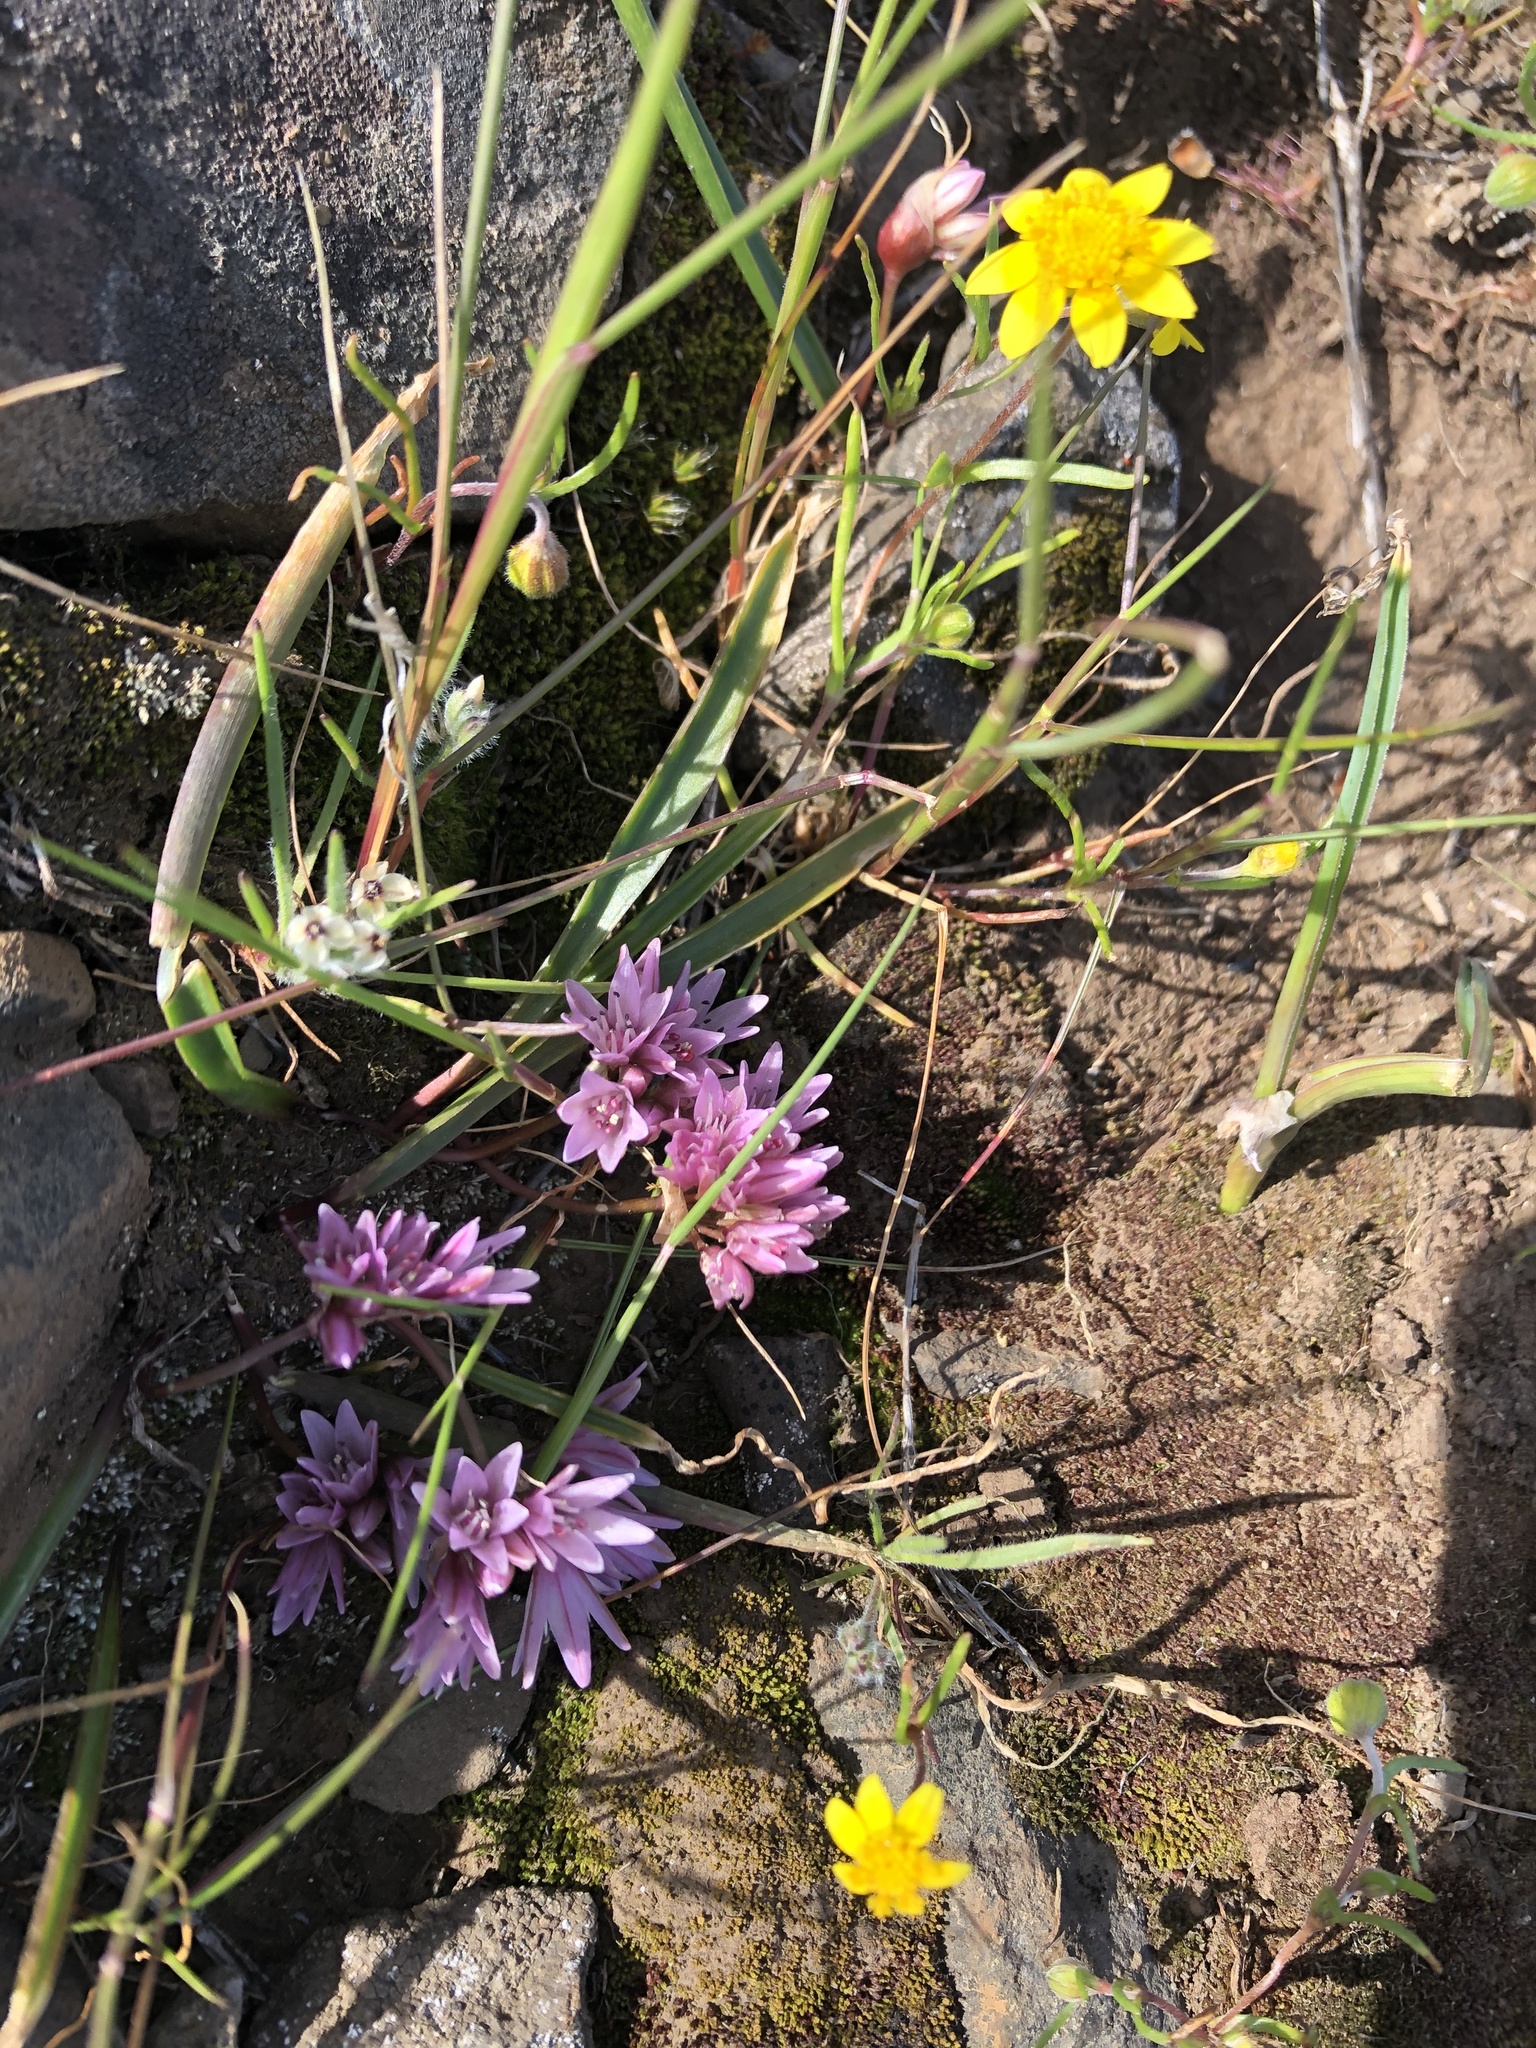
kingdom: Plantae
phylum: Tracheophyta
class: Liliopsida
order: Asparagales
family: Amaryllidaceae
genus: Allium
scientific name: Allium cratericola
